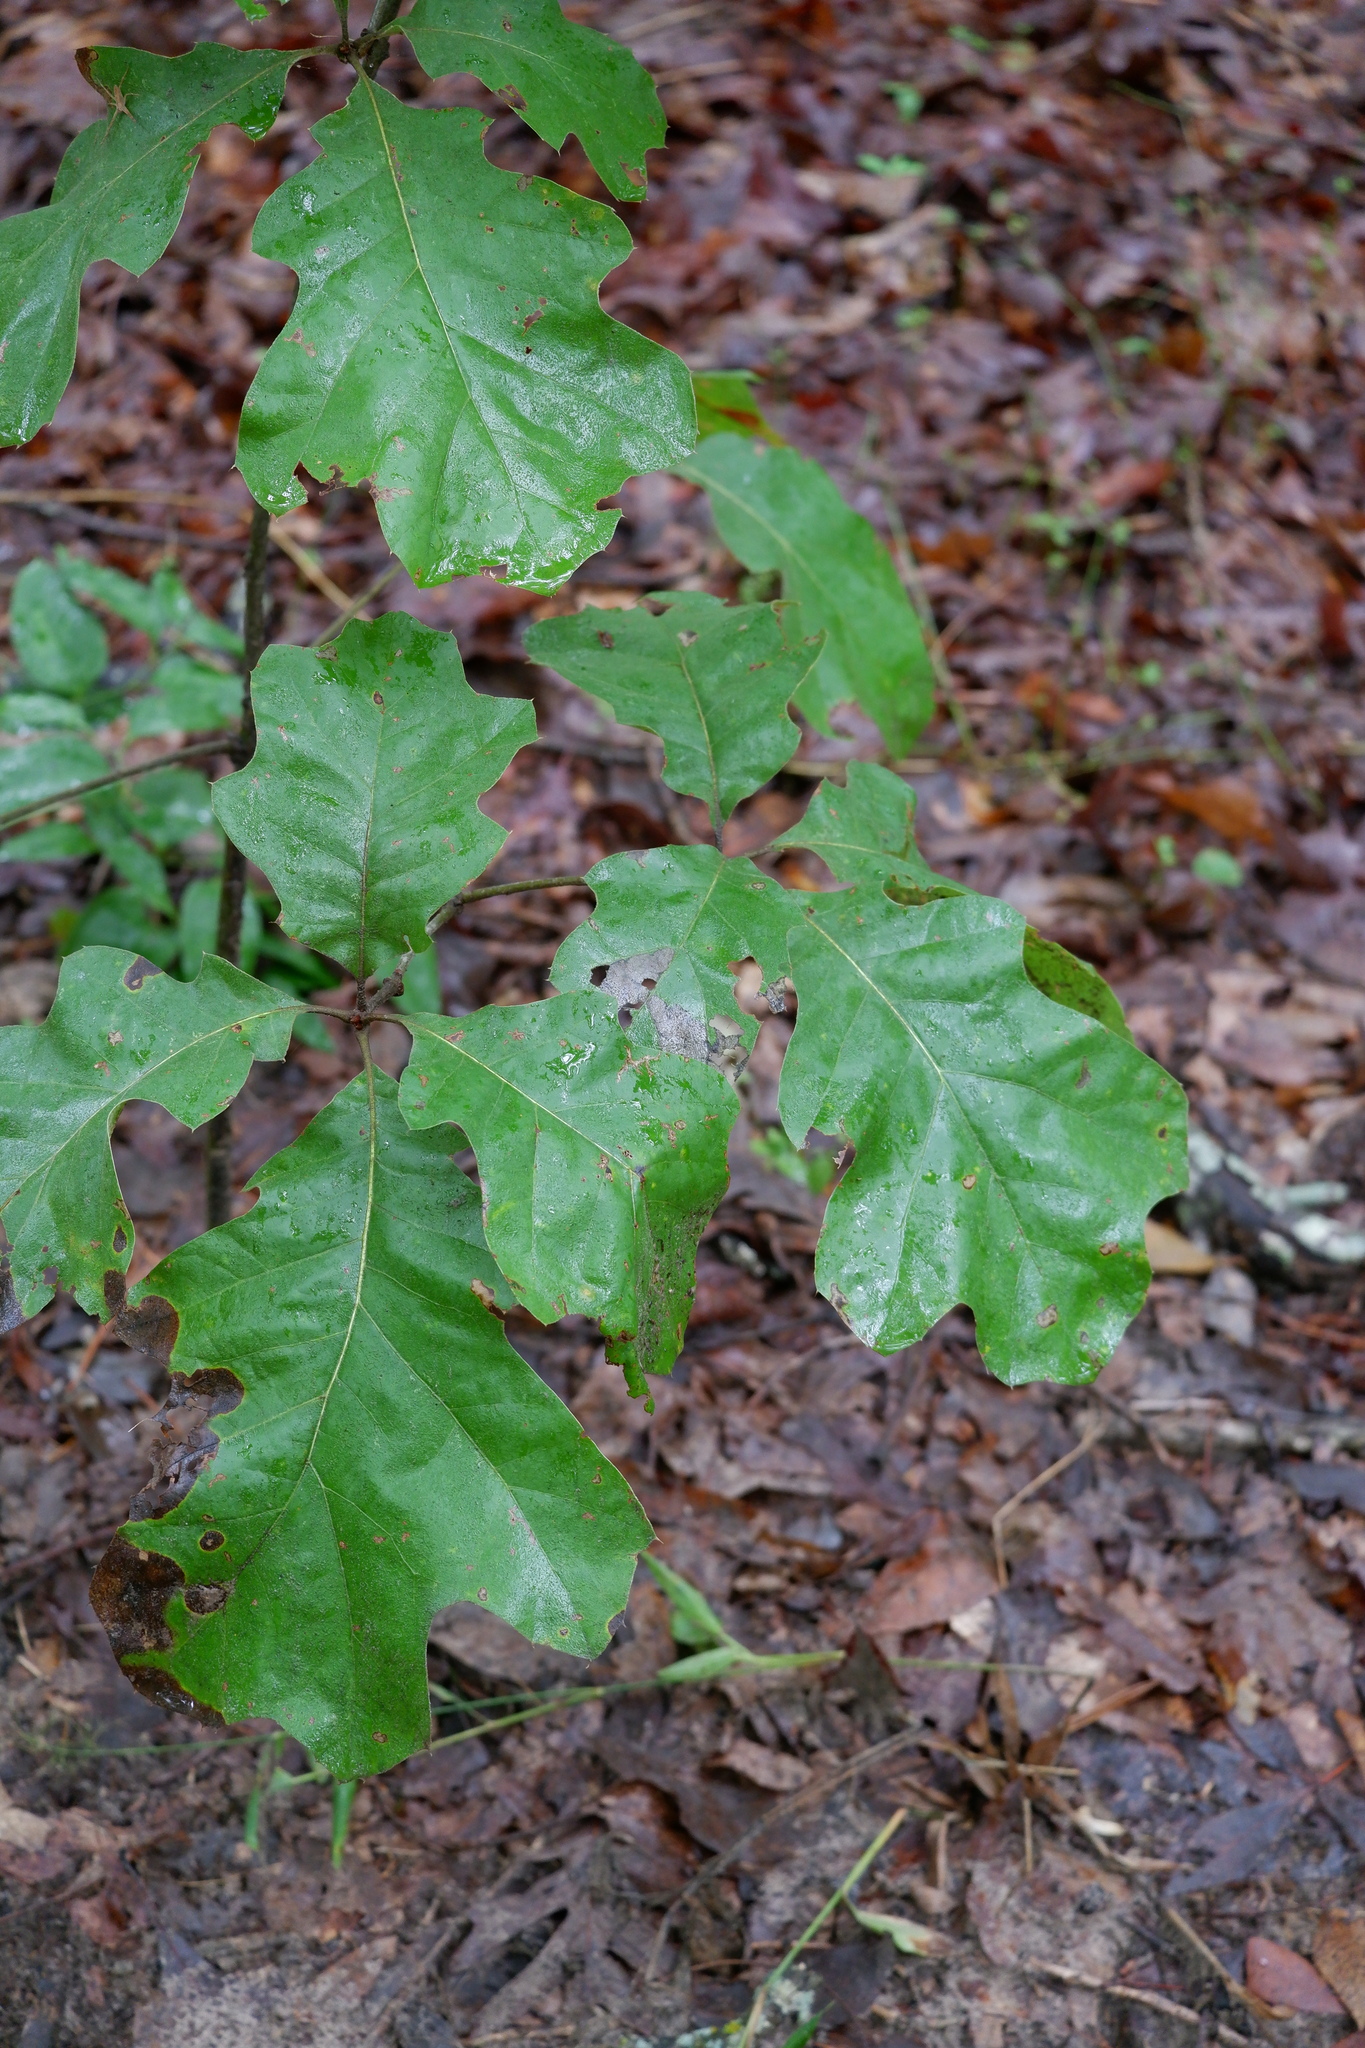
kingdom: Plantae
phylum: Tracheophyta
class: Magnoliopsida
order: Fagales
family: Fagaceae
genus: Quercus
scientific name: Quercus velutina
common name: Black oak
